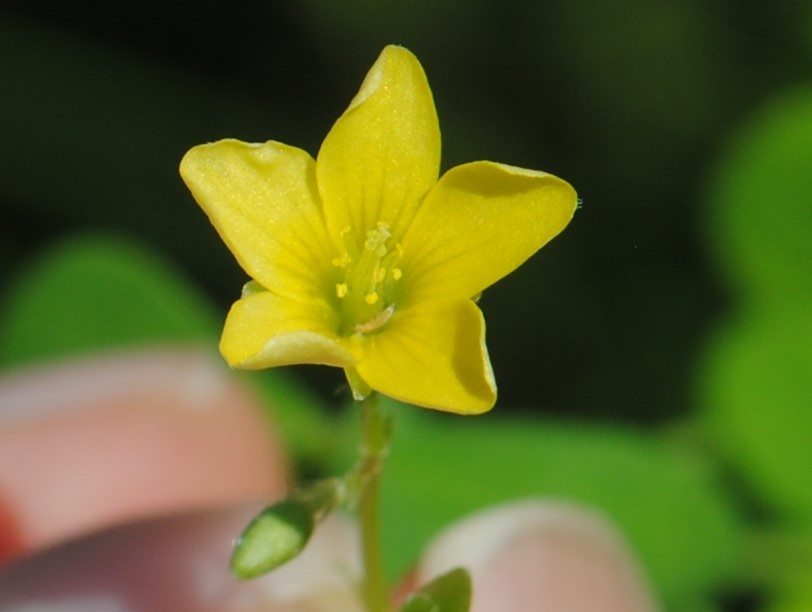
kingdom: Plantae
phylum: Tracheophyta
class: Magnoliopsida
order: Oxalidales
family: Oxalidaceae
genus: Oxalis
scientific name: Oxalis stricta
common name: Upright yellow-sorrel
